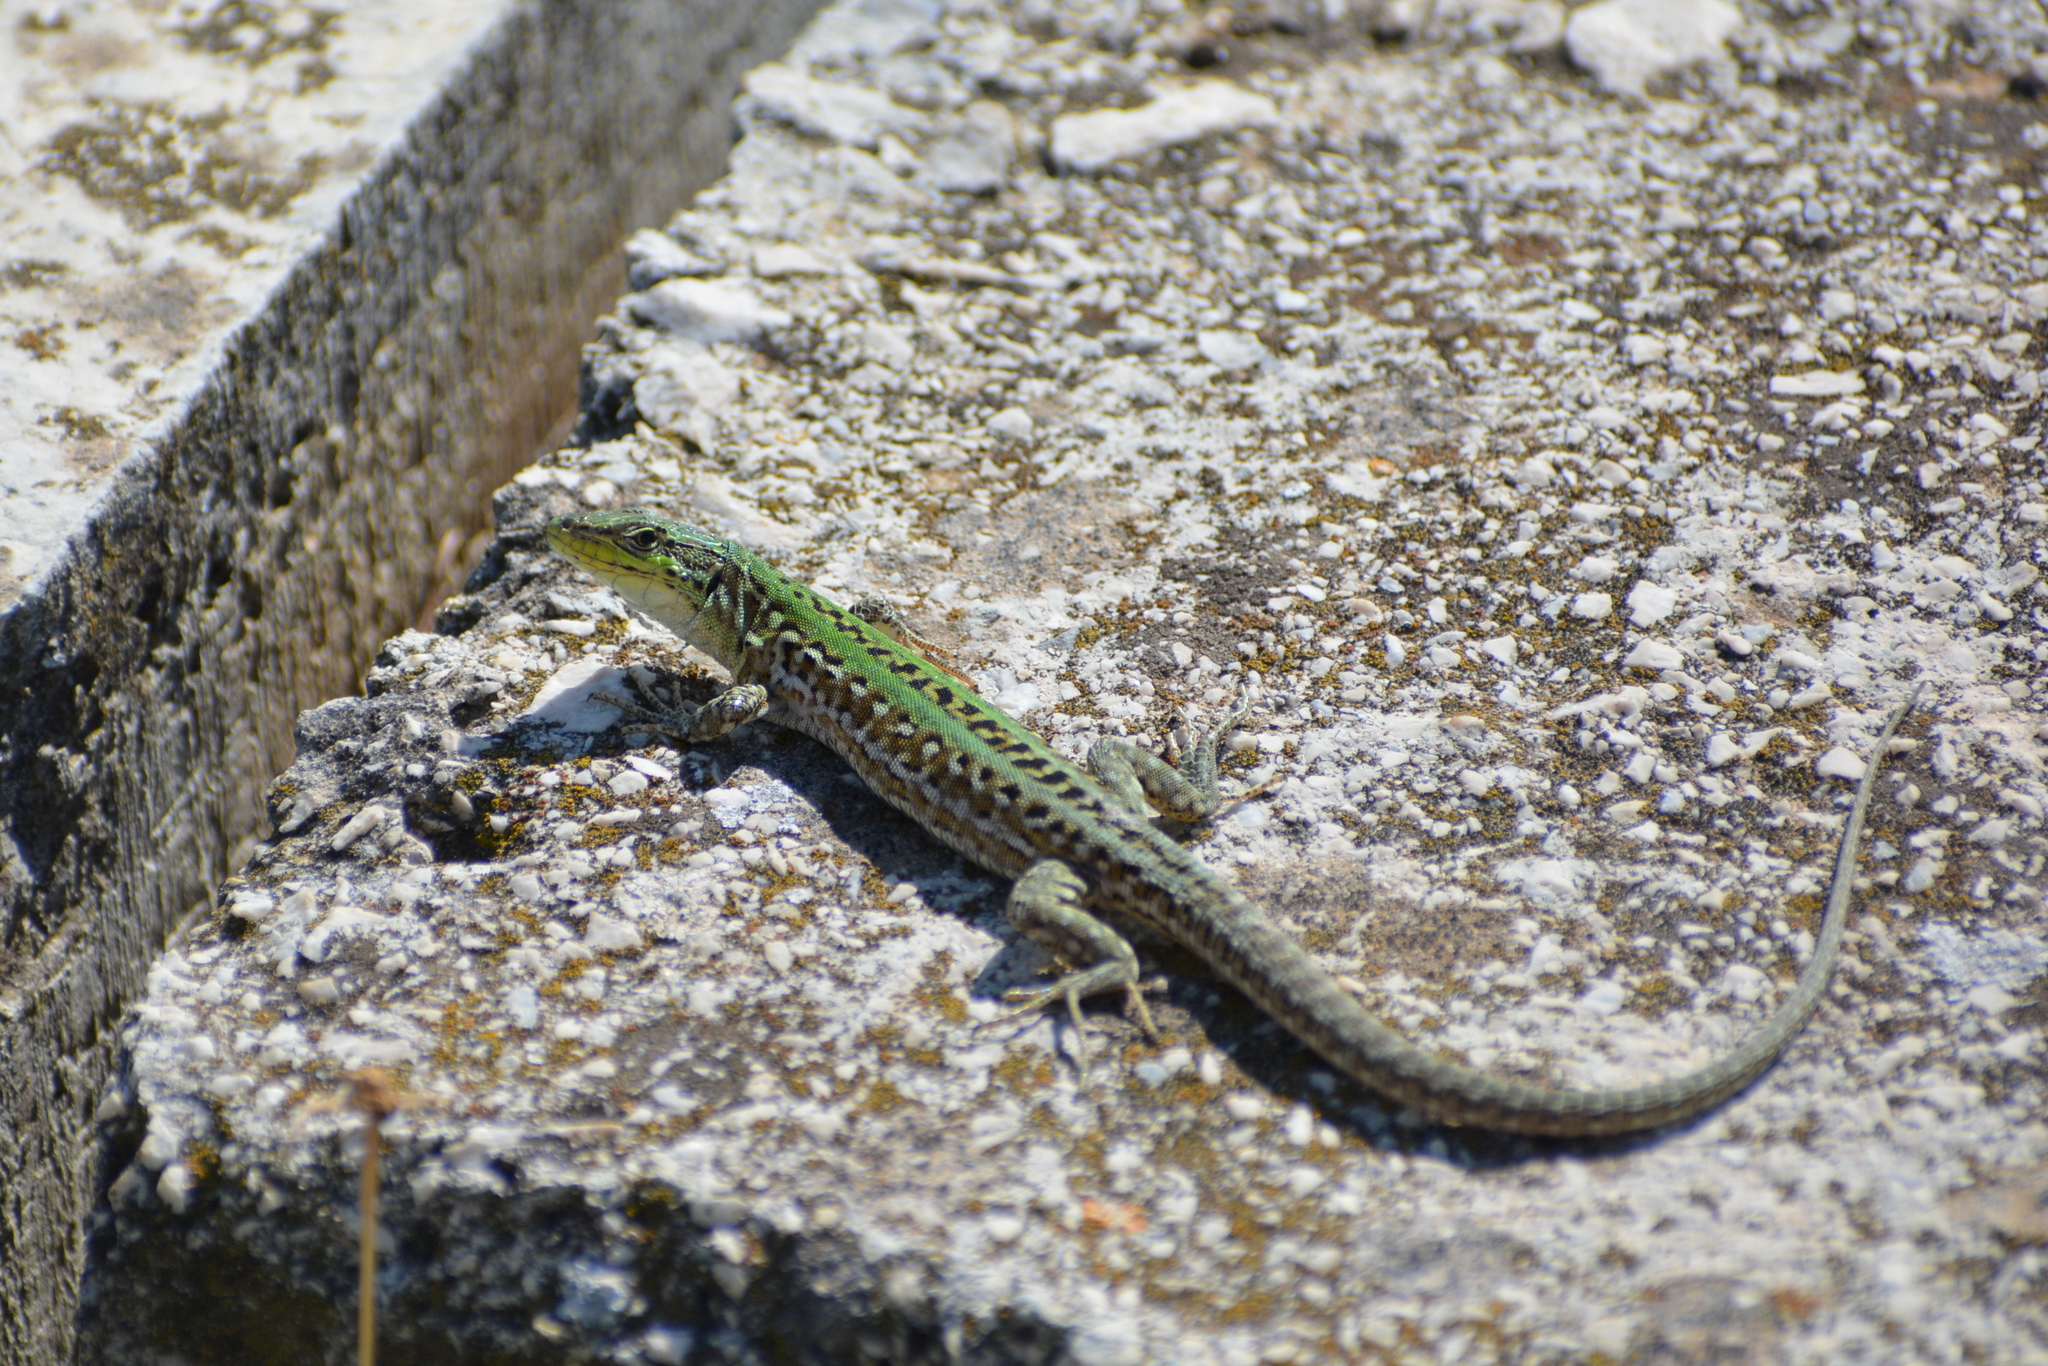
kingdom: Animalia
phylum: Chordata
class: Squamata
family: Lacertidae
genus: Podarcis
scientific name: Podarcis siculus
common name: Italian wall lizard
